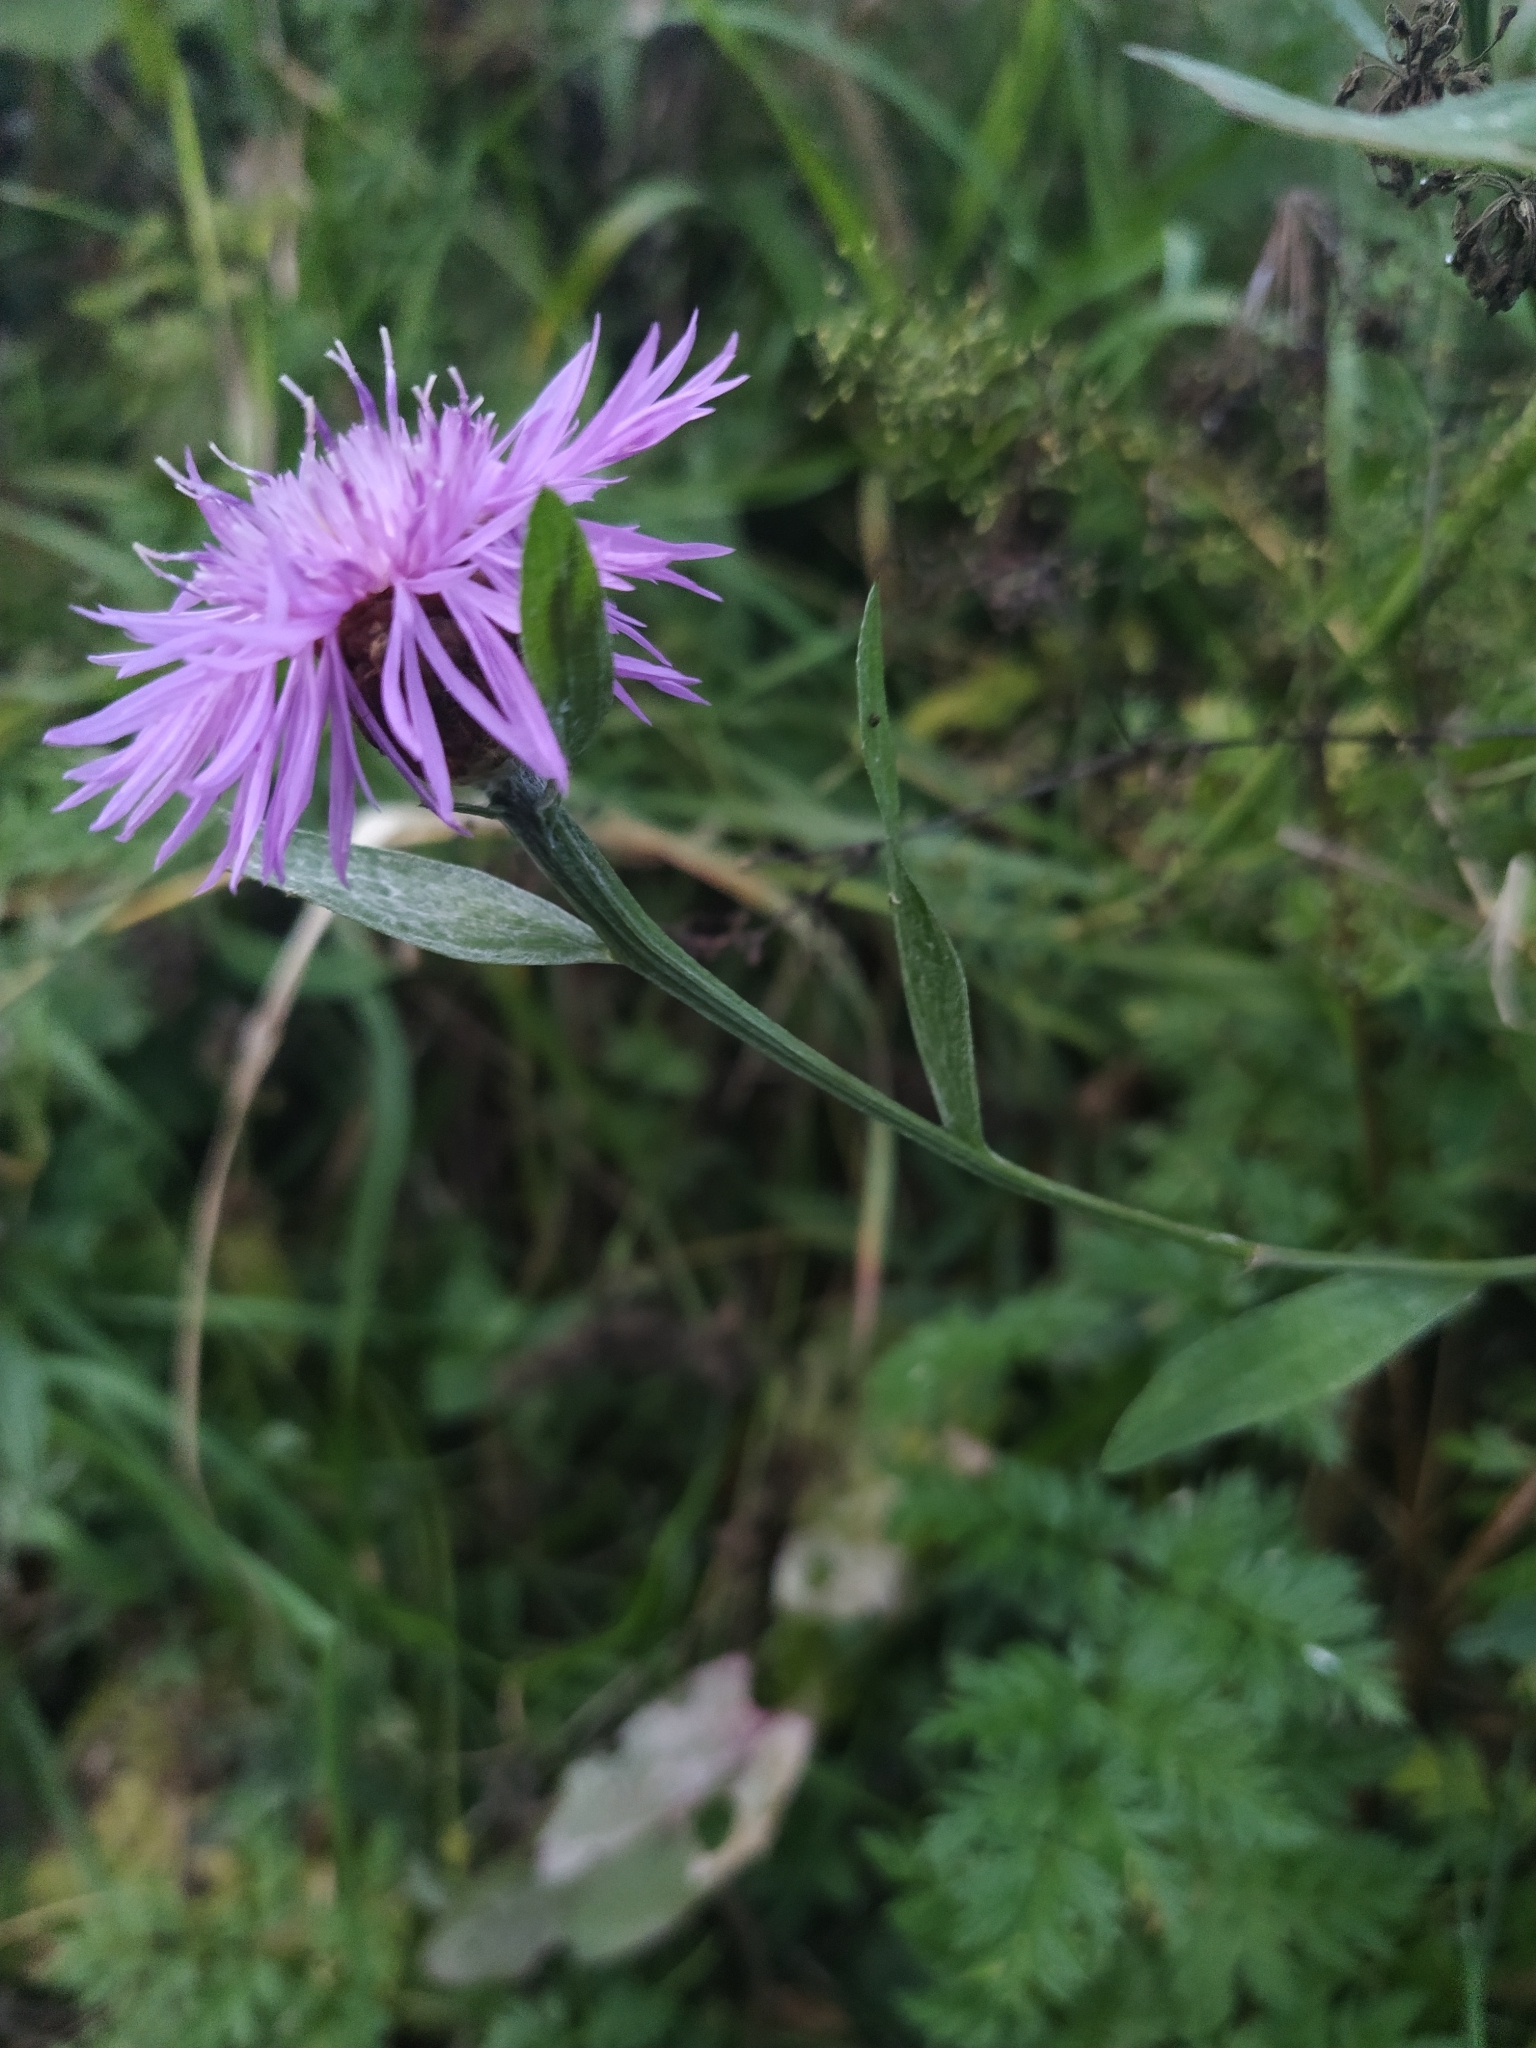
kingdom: Plantae
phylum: Tracheophyta
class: Magnoliopsida
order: Asterales
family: Asteraceae
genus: Centaurea
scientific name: Centaurea jacea
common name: Brown knapweed
